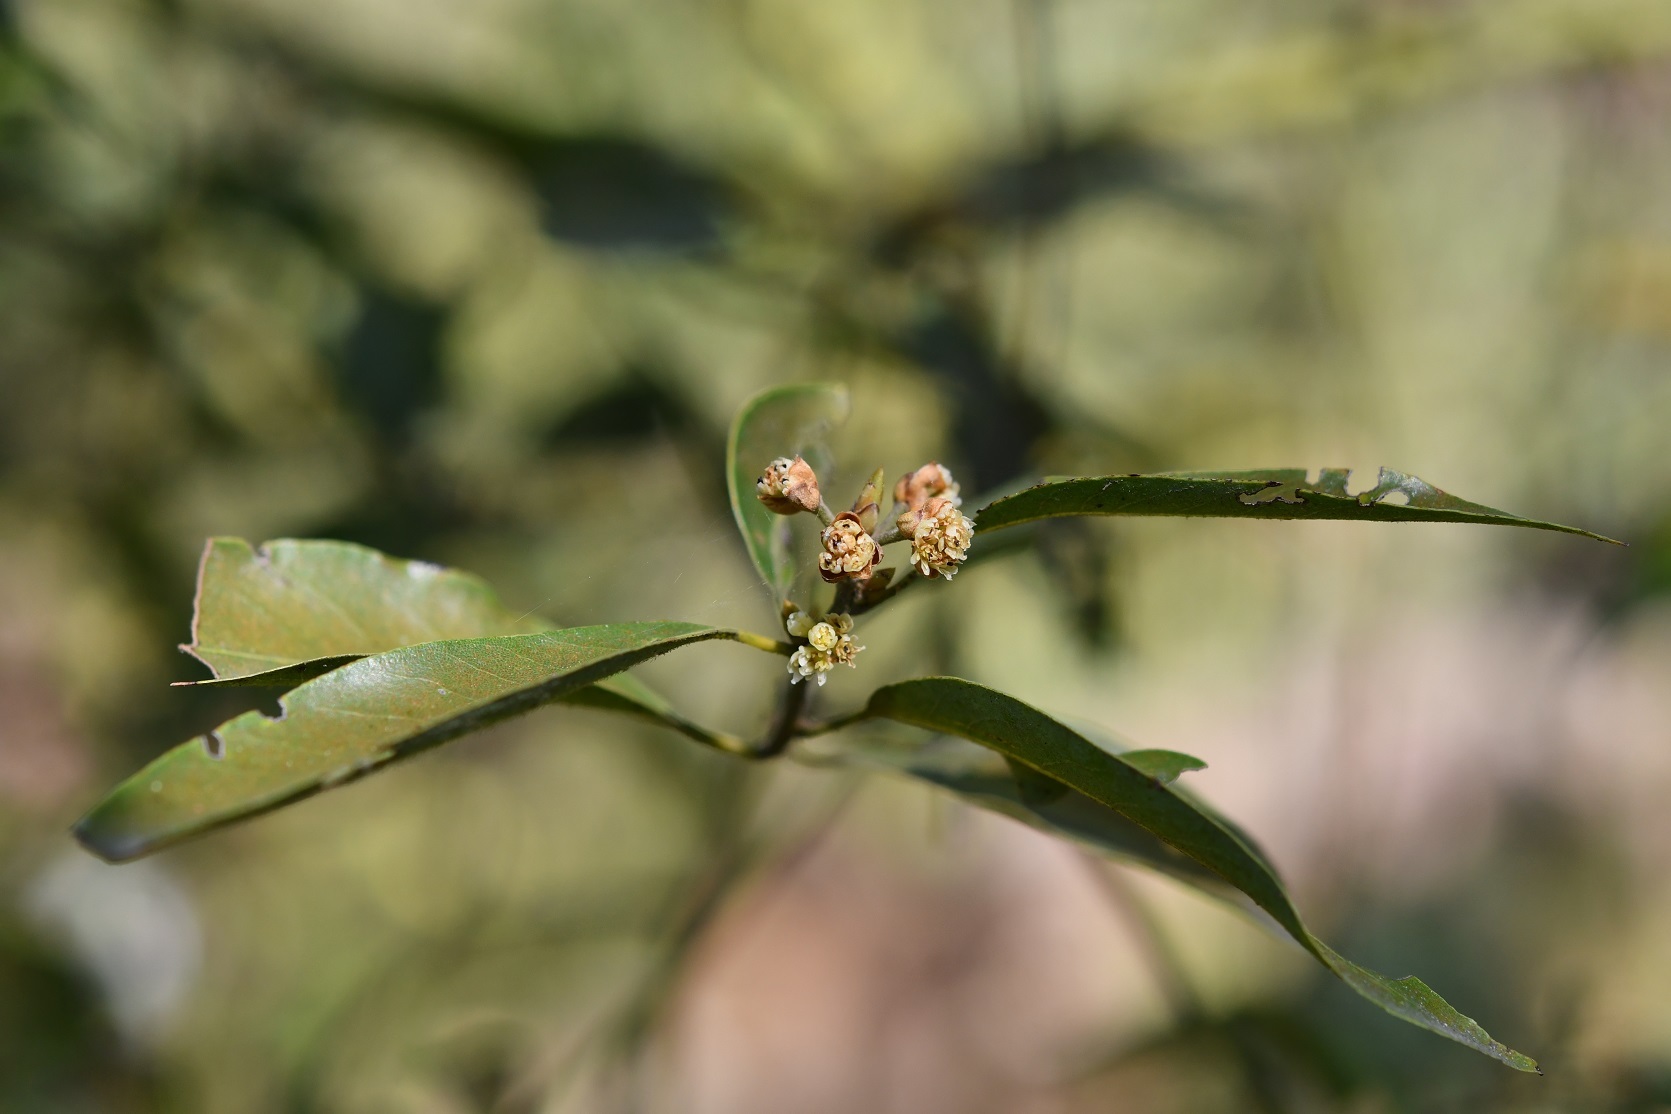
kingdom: Plantae
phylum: Tracheophyta
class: Magnoliopsida
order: Laurales
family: Lauraceae
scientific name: Lauraceae
